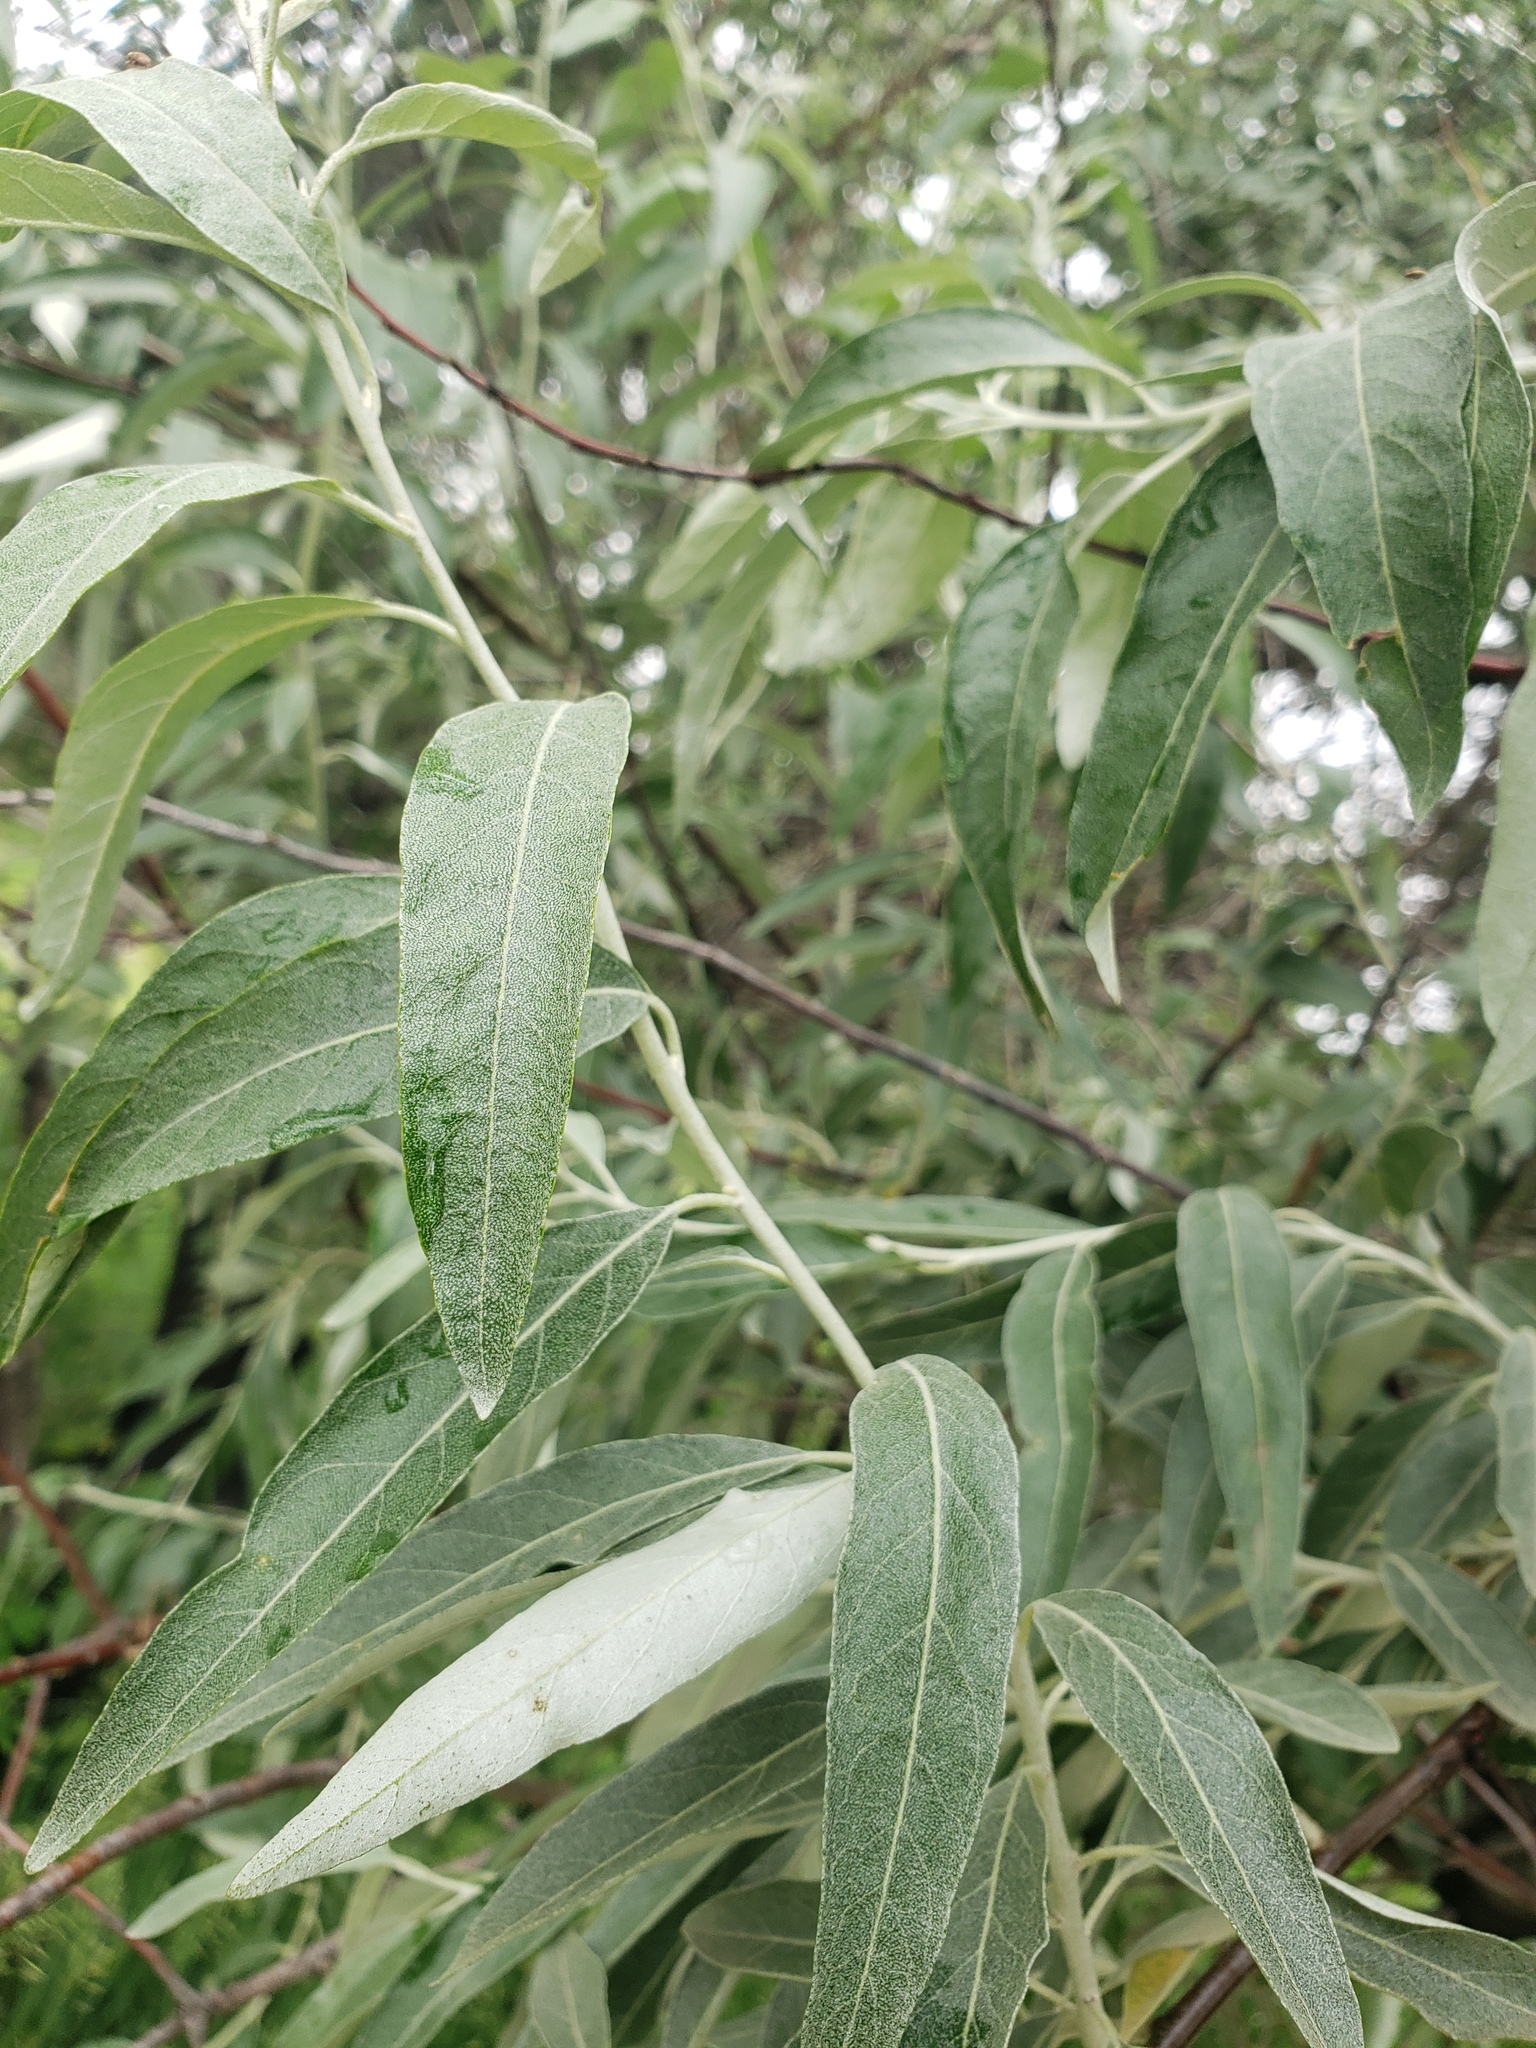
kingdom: Plantae
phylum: Tracheophyta
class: Magnoliopsida
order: Rosales
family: Elaeagnaceae
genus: Elaeagnus
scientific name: Elaeagnus angustifolia
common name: Russian olive
